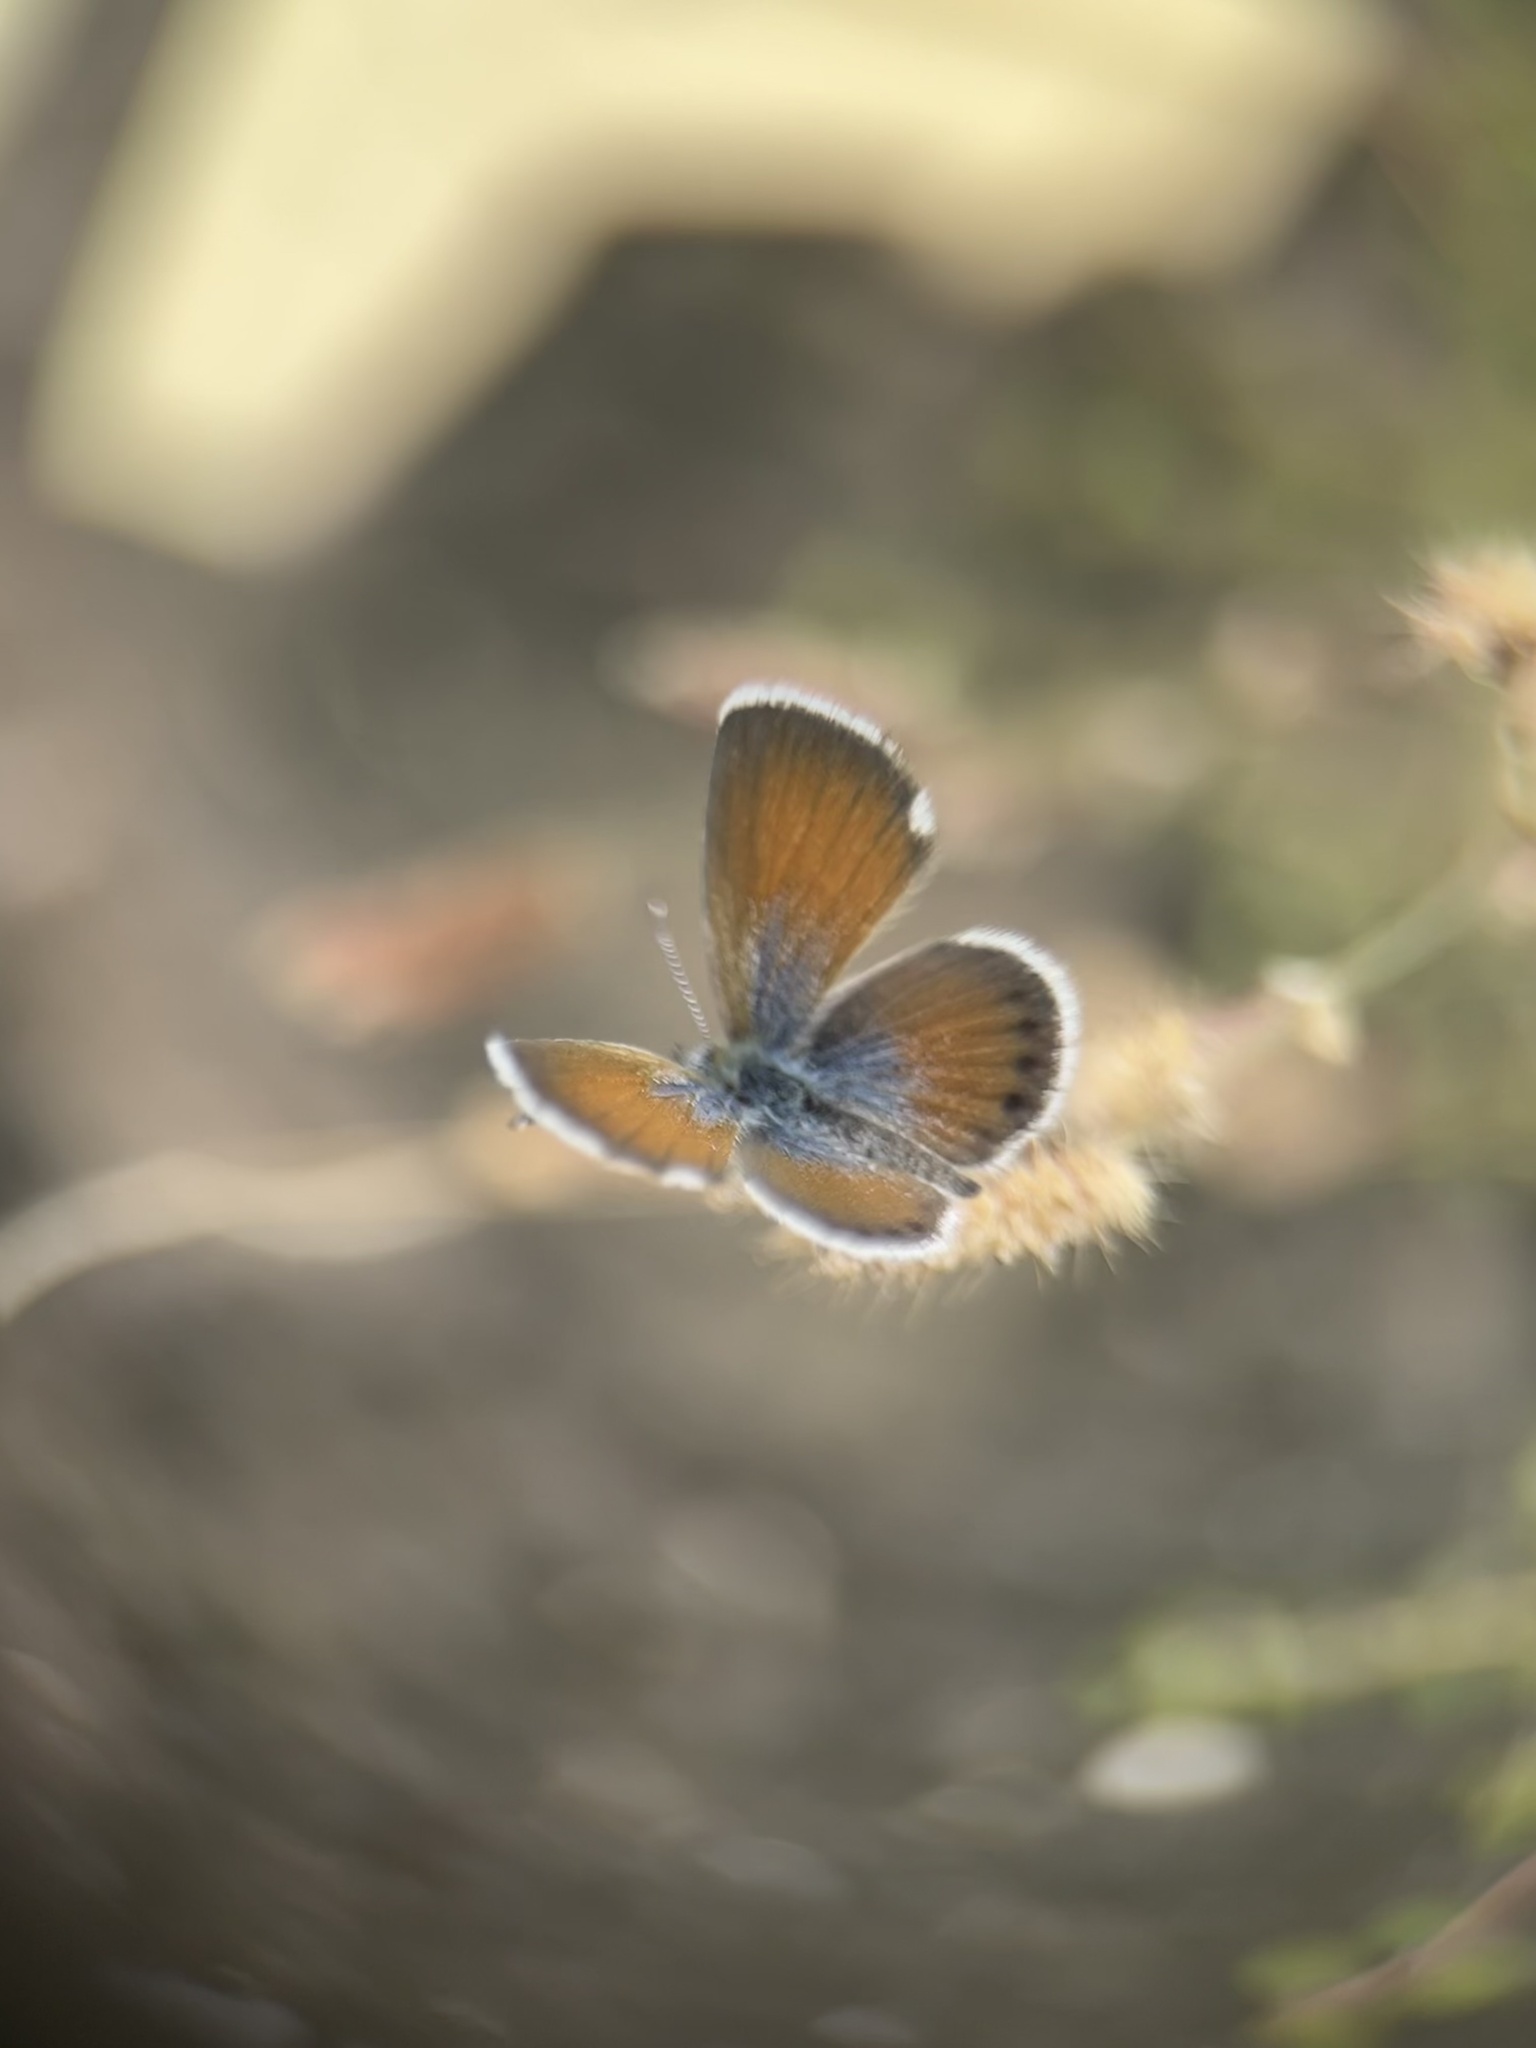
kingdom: Animalia
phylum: Arthropoda
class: Insecta
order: Lepidoptera
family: Lycaenidae
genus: Brephidium
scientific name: Brephidium exilis
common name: Pygmy blue
